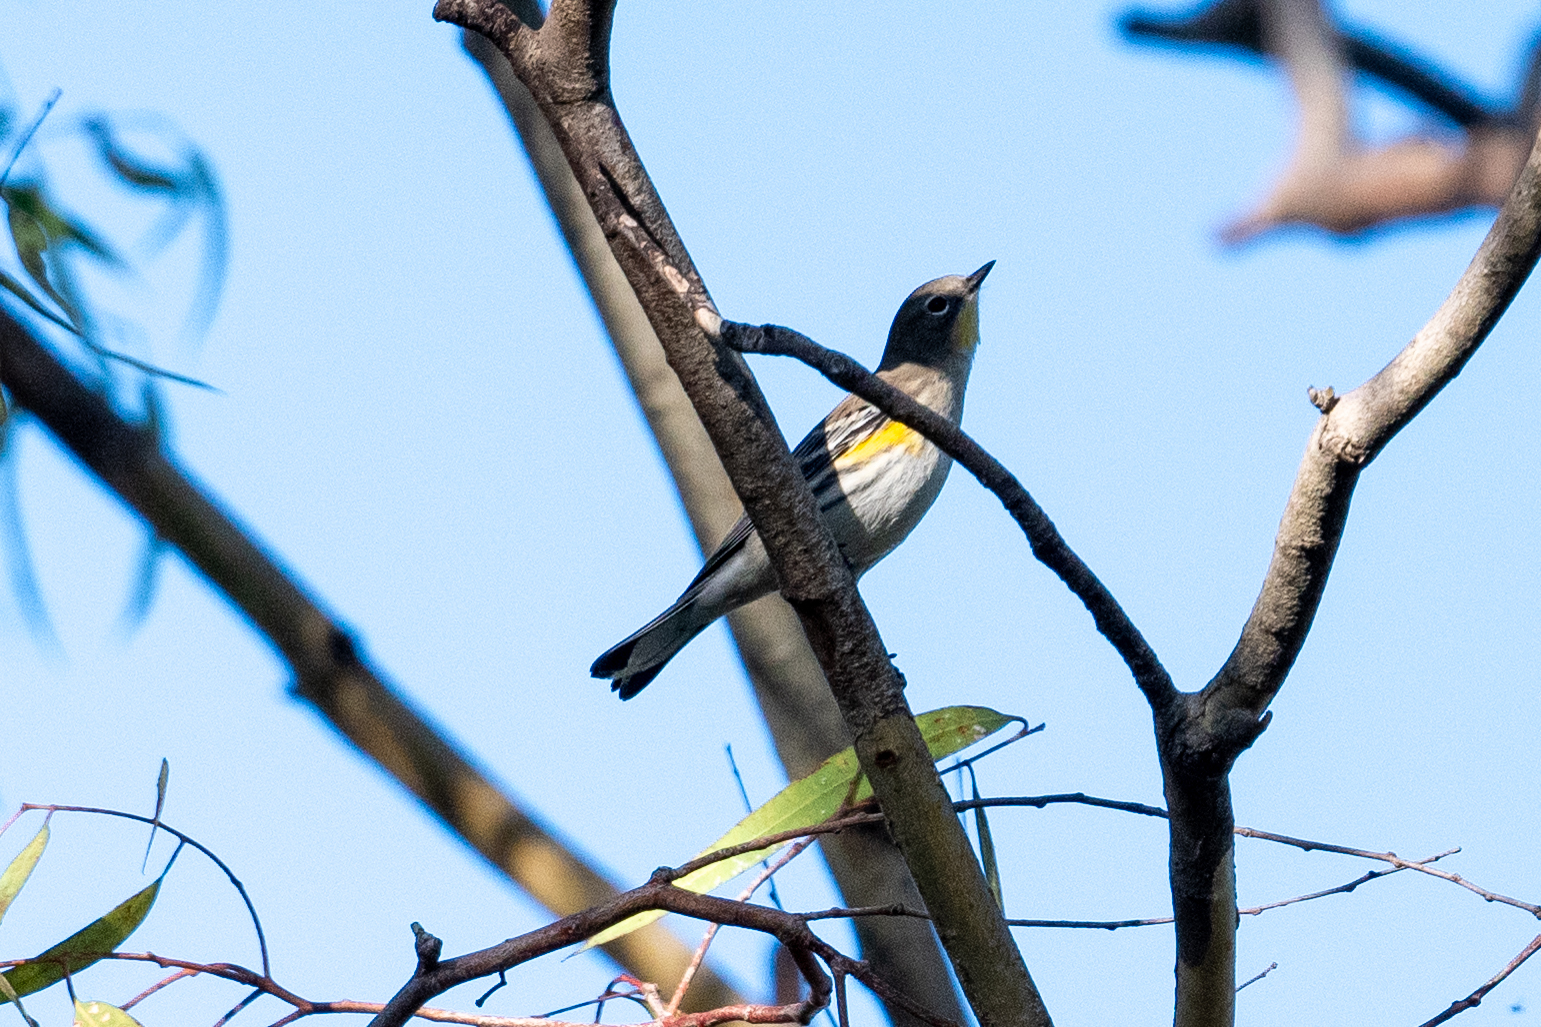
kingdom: Animalia
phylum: Chordata
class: Aves
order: Passeriformes
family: Parulidae
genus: Setophaga
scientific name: Setophaga coronata
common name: Myrtle warbler
